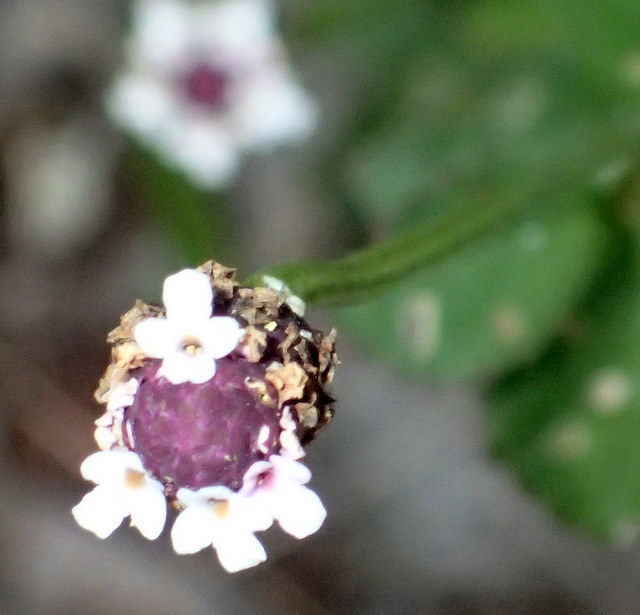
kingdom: Plantae
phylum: Tracheophyta
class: Magnoliopsida
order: Lamiales
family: Verbenaceae
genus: Phyla
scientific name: Phyla nodiflora
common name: Frogfruit
